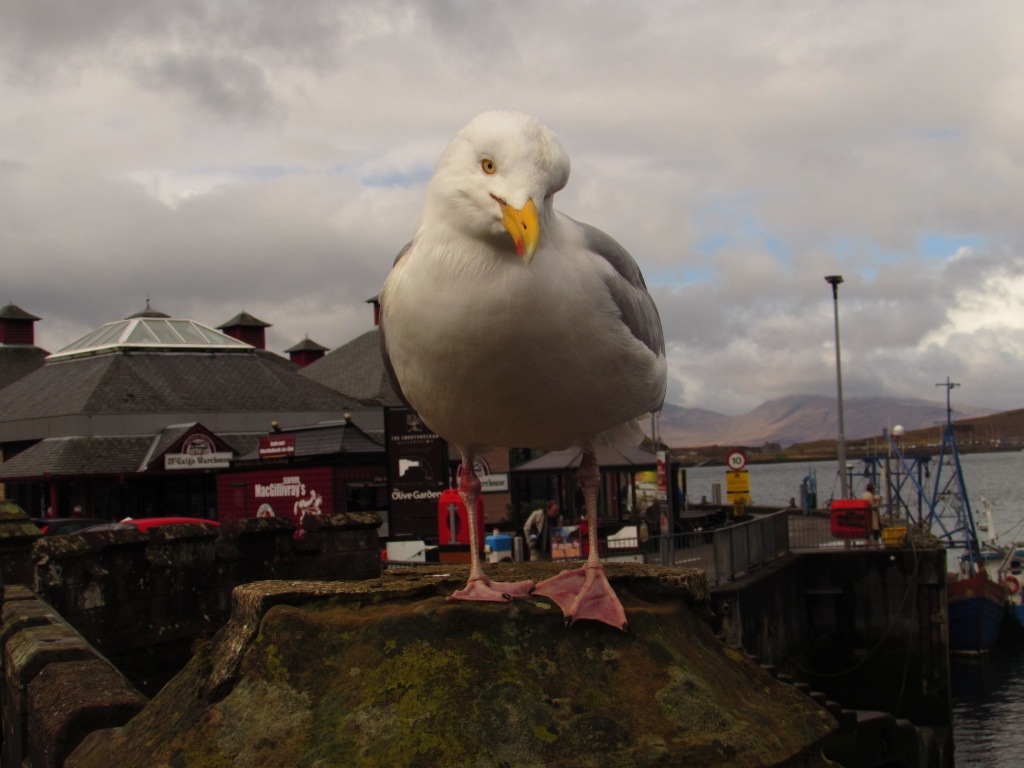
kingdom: Animalia
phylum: Chordata
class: Aves
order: Charadriiformes
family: Laridae
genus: Larus
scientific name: Larus argentatus
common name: Herring gull
